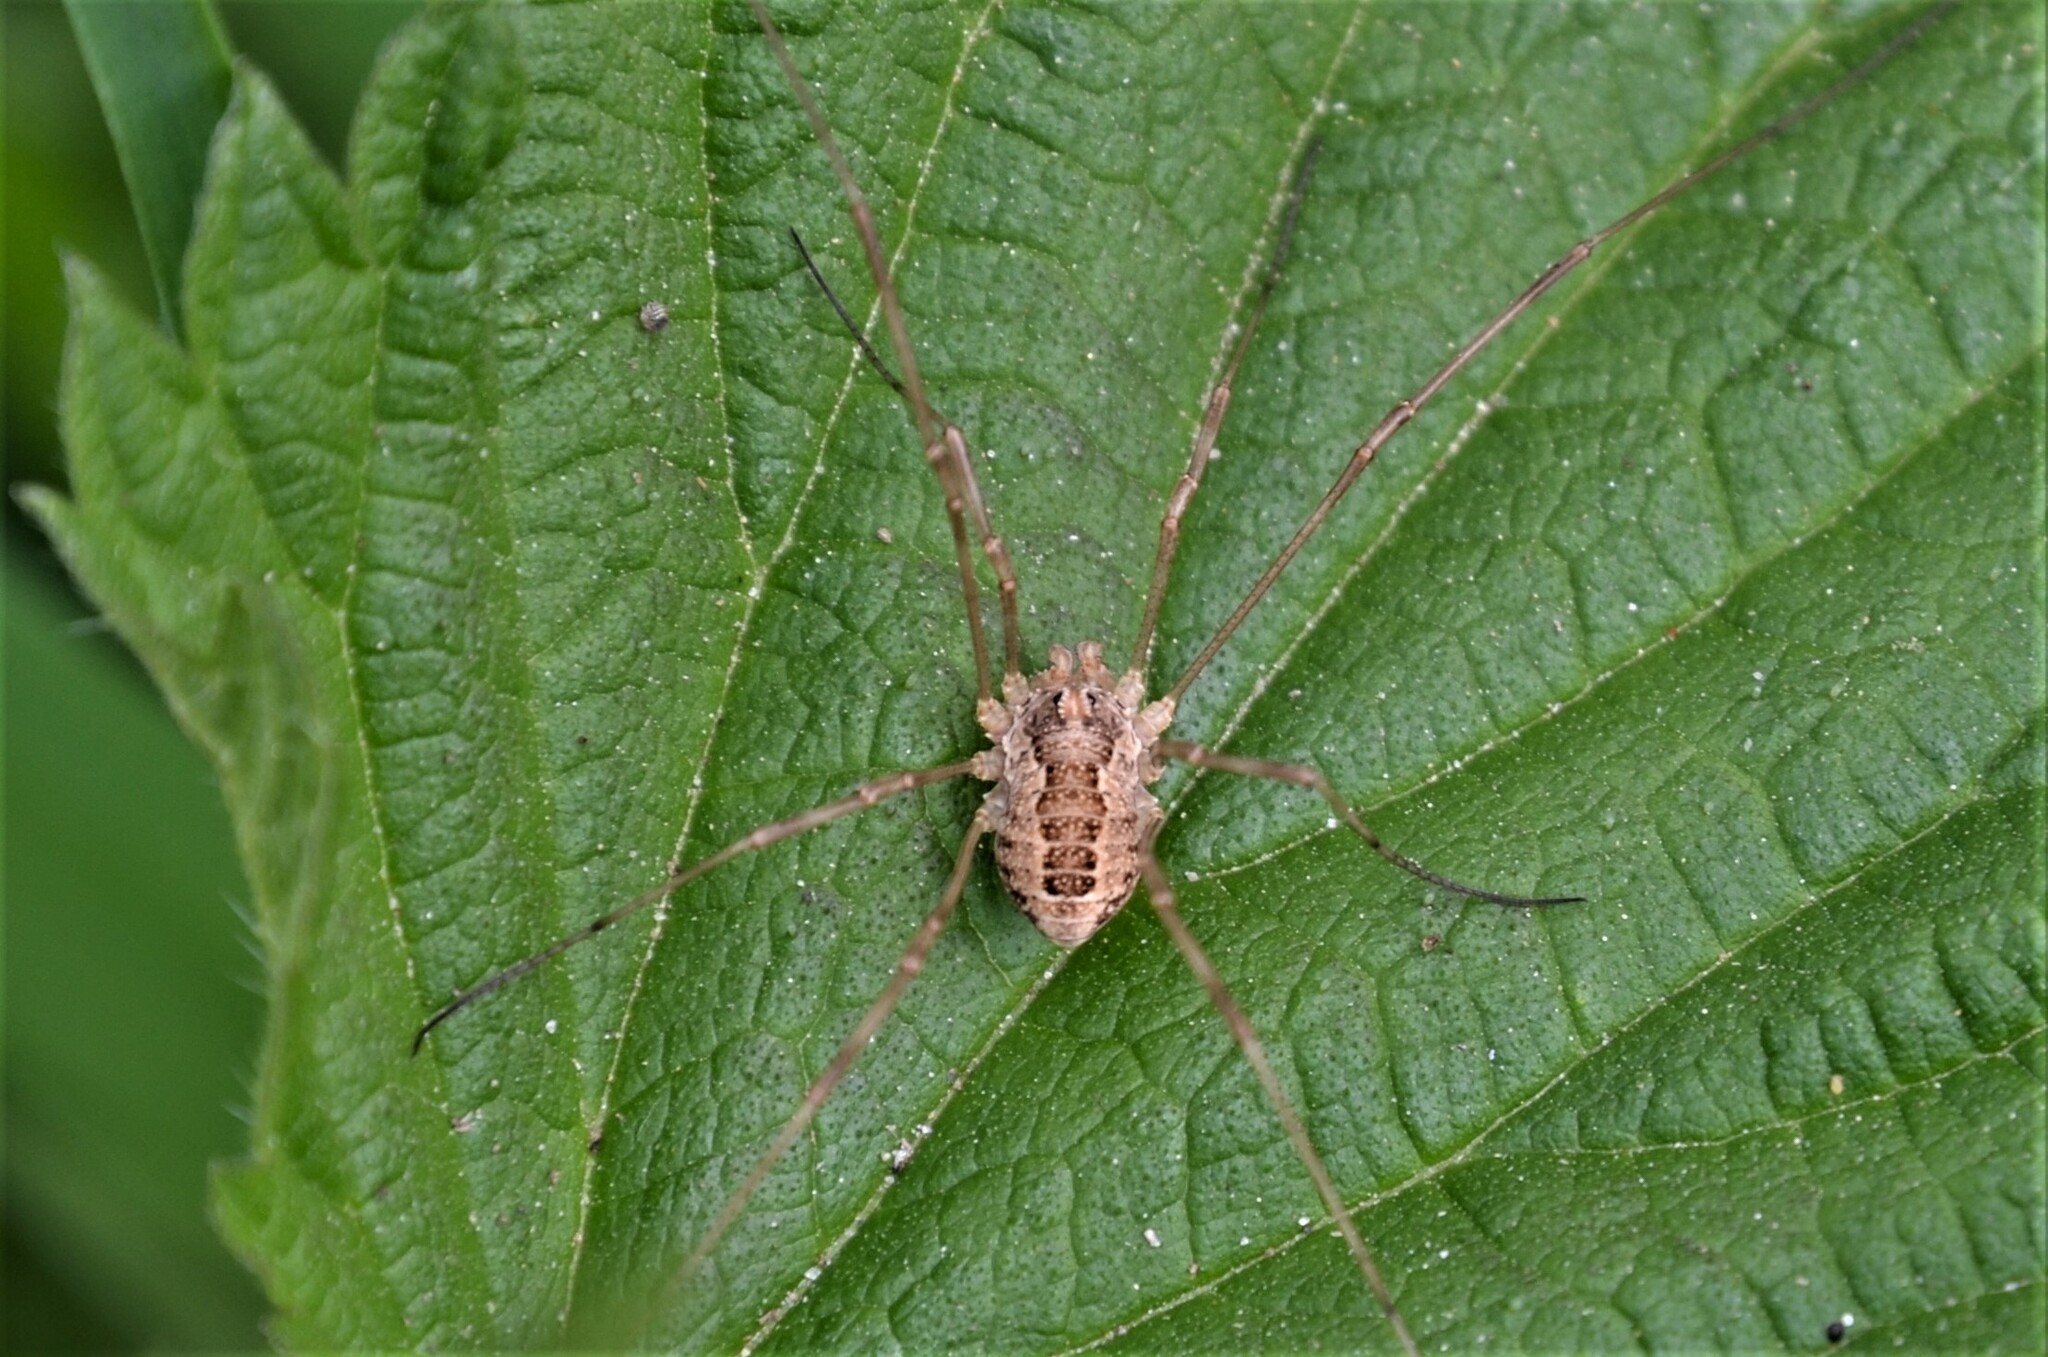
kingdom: Animalia
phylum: Arthropoda
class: Arachnida
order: Opiliones
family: Phalangiidae
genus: Rilaena
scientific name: Rilaena triangularis
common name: Spring harvestman
